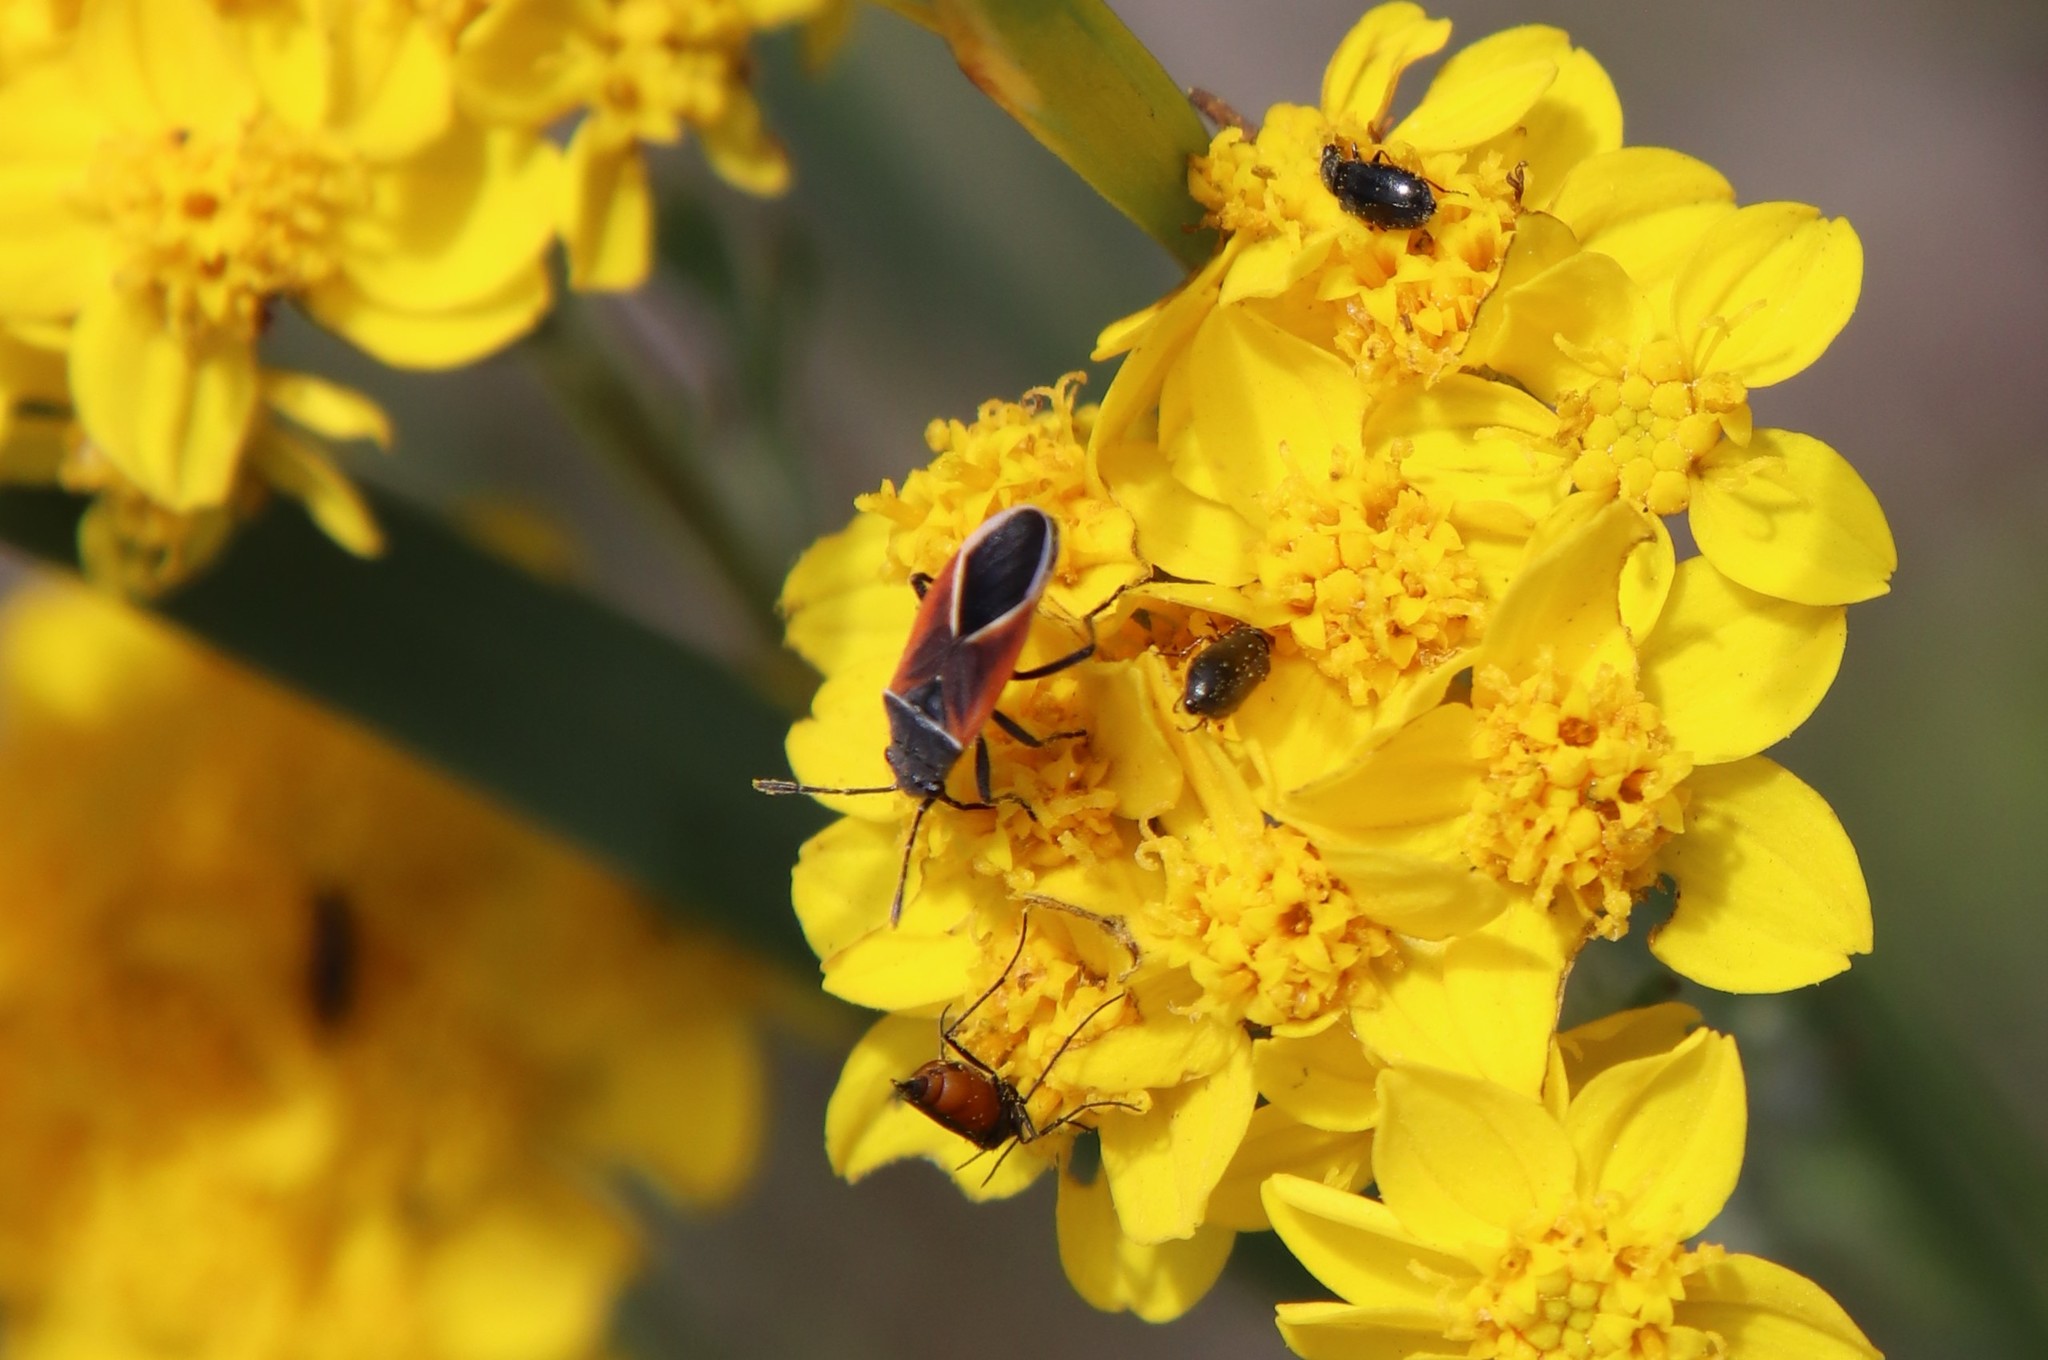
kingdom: Animalia
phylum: Arthropoda
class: Insecta
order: Hemiptera
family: Lygaeidae
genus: Melanopleurus
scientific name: Melanopleurus pyrrhopterus
